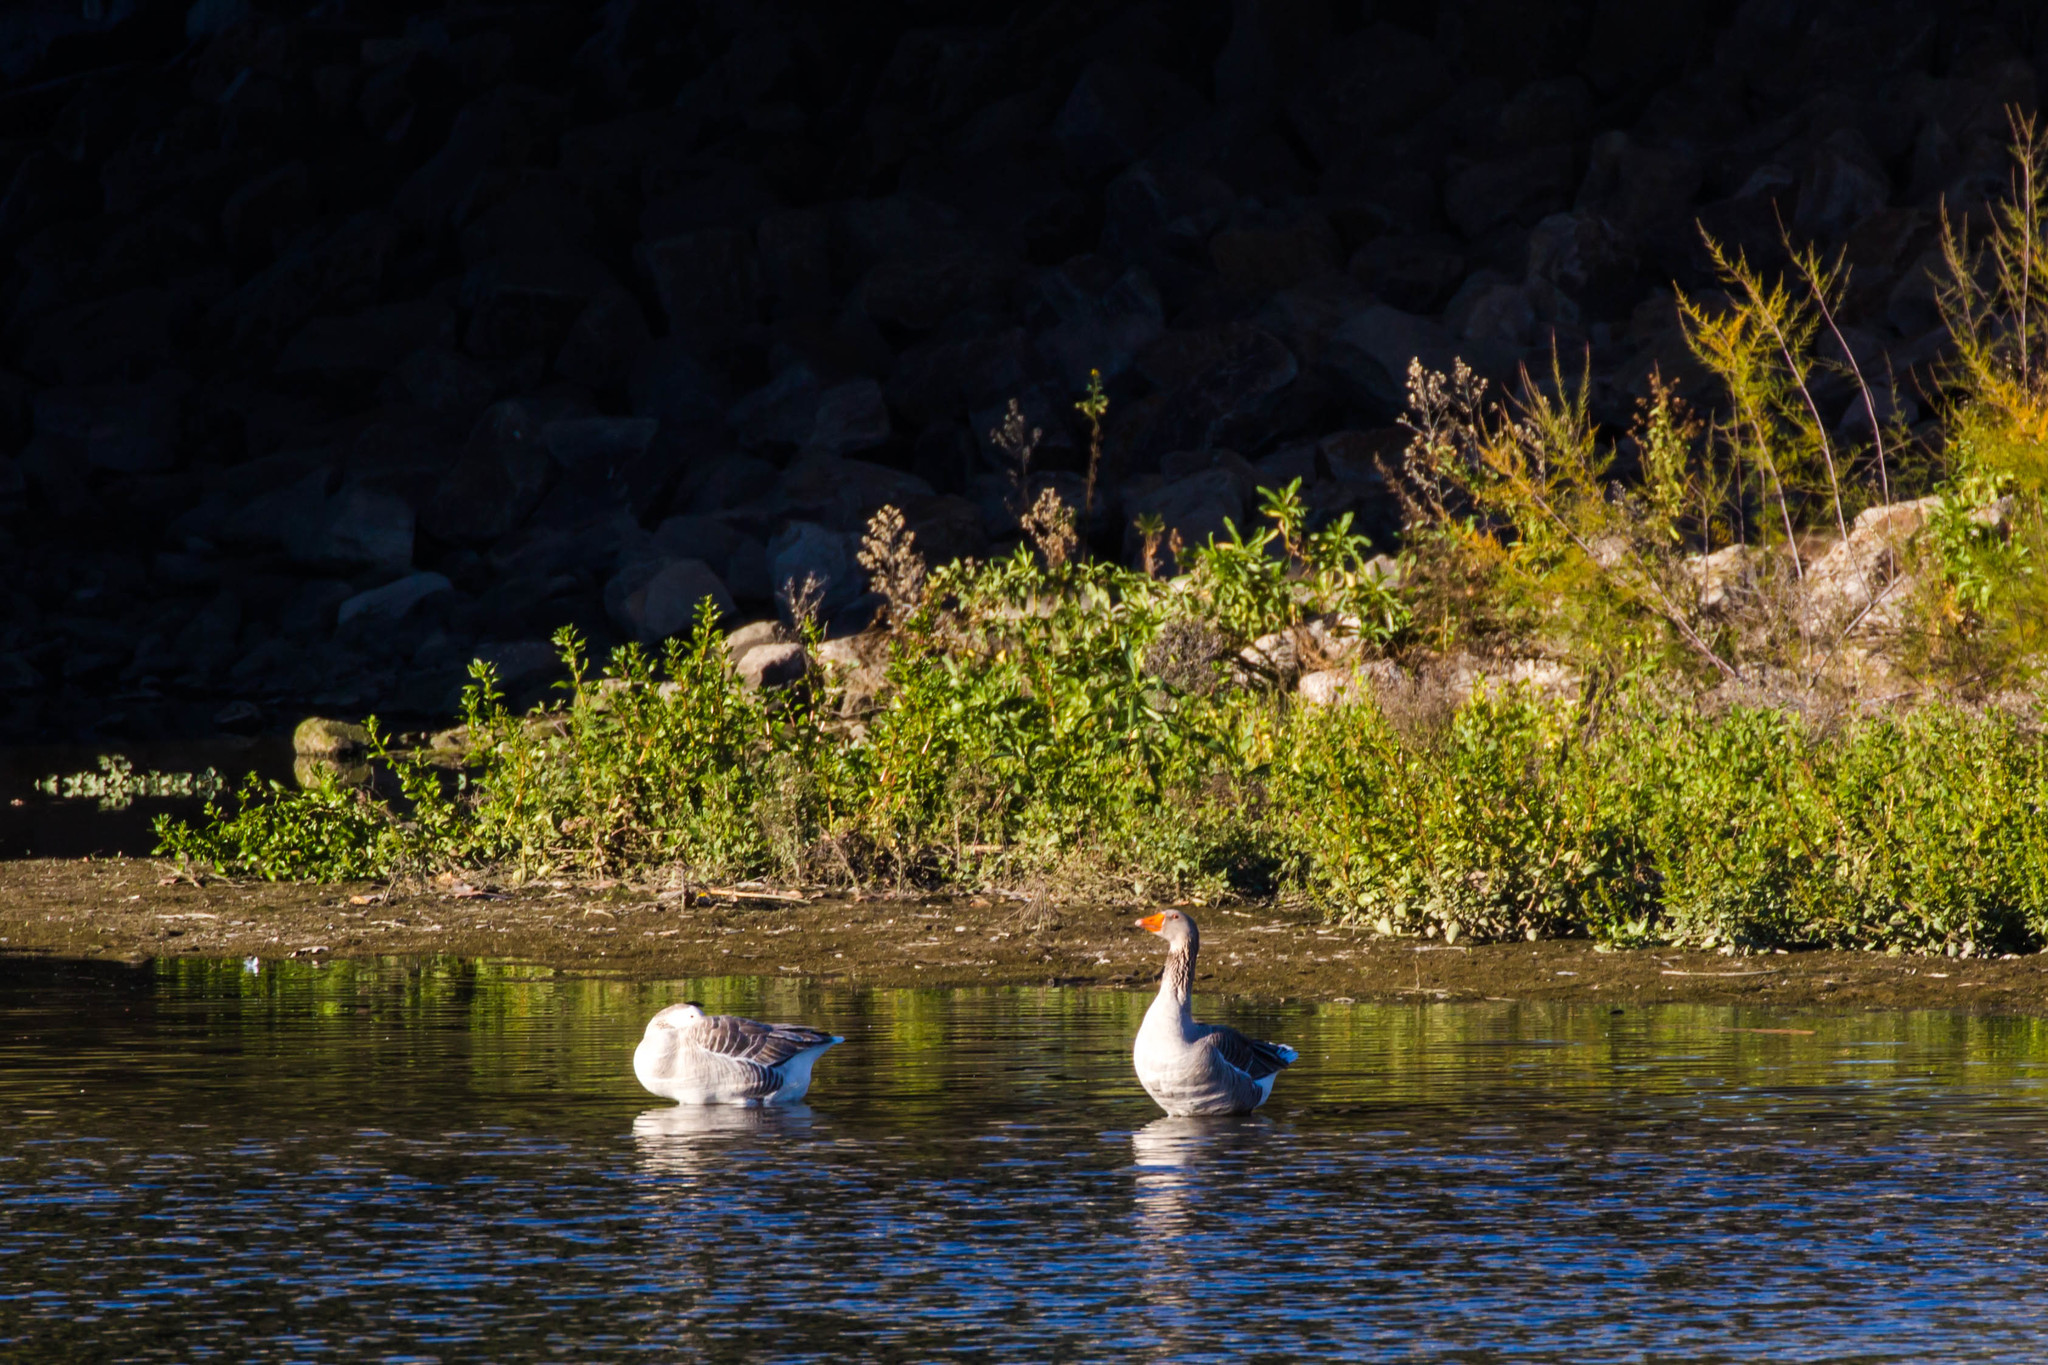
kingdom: Animalia
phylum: Chordata
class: Aves
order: Anseriformes
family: Anatidae
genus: Anser
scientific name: Anser anser
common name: Greylag goose
